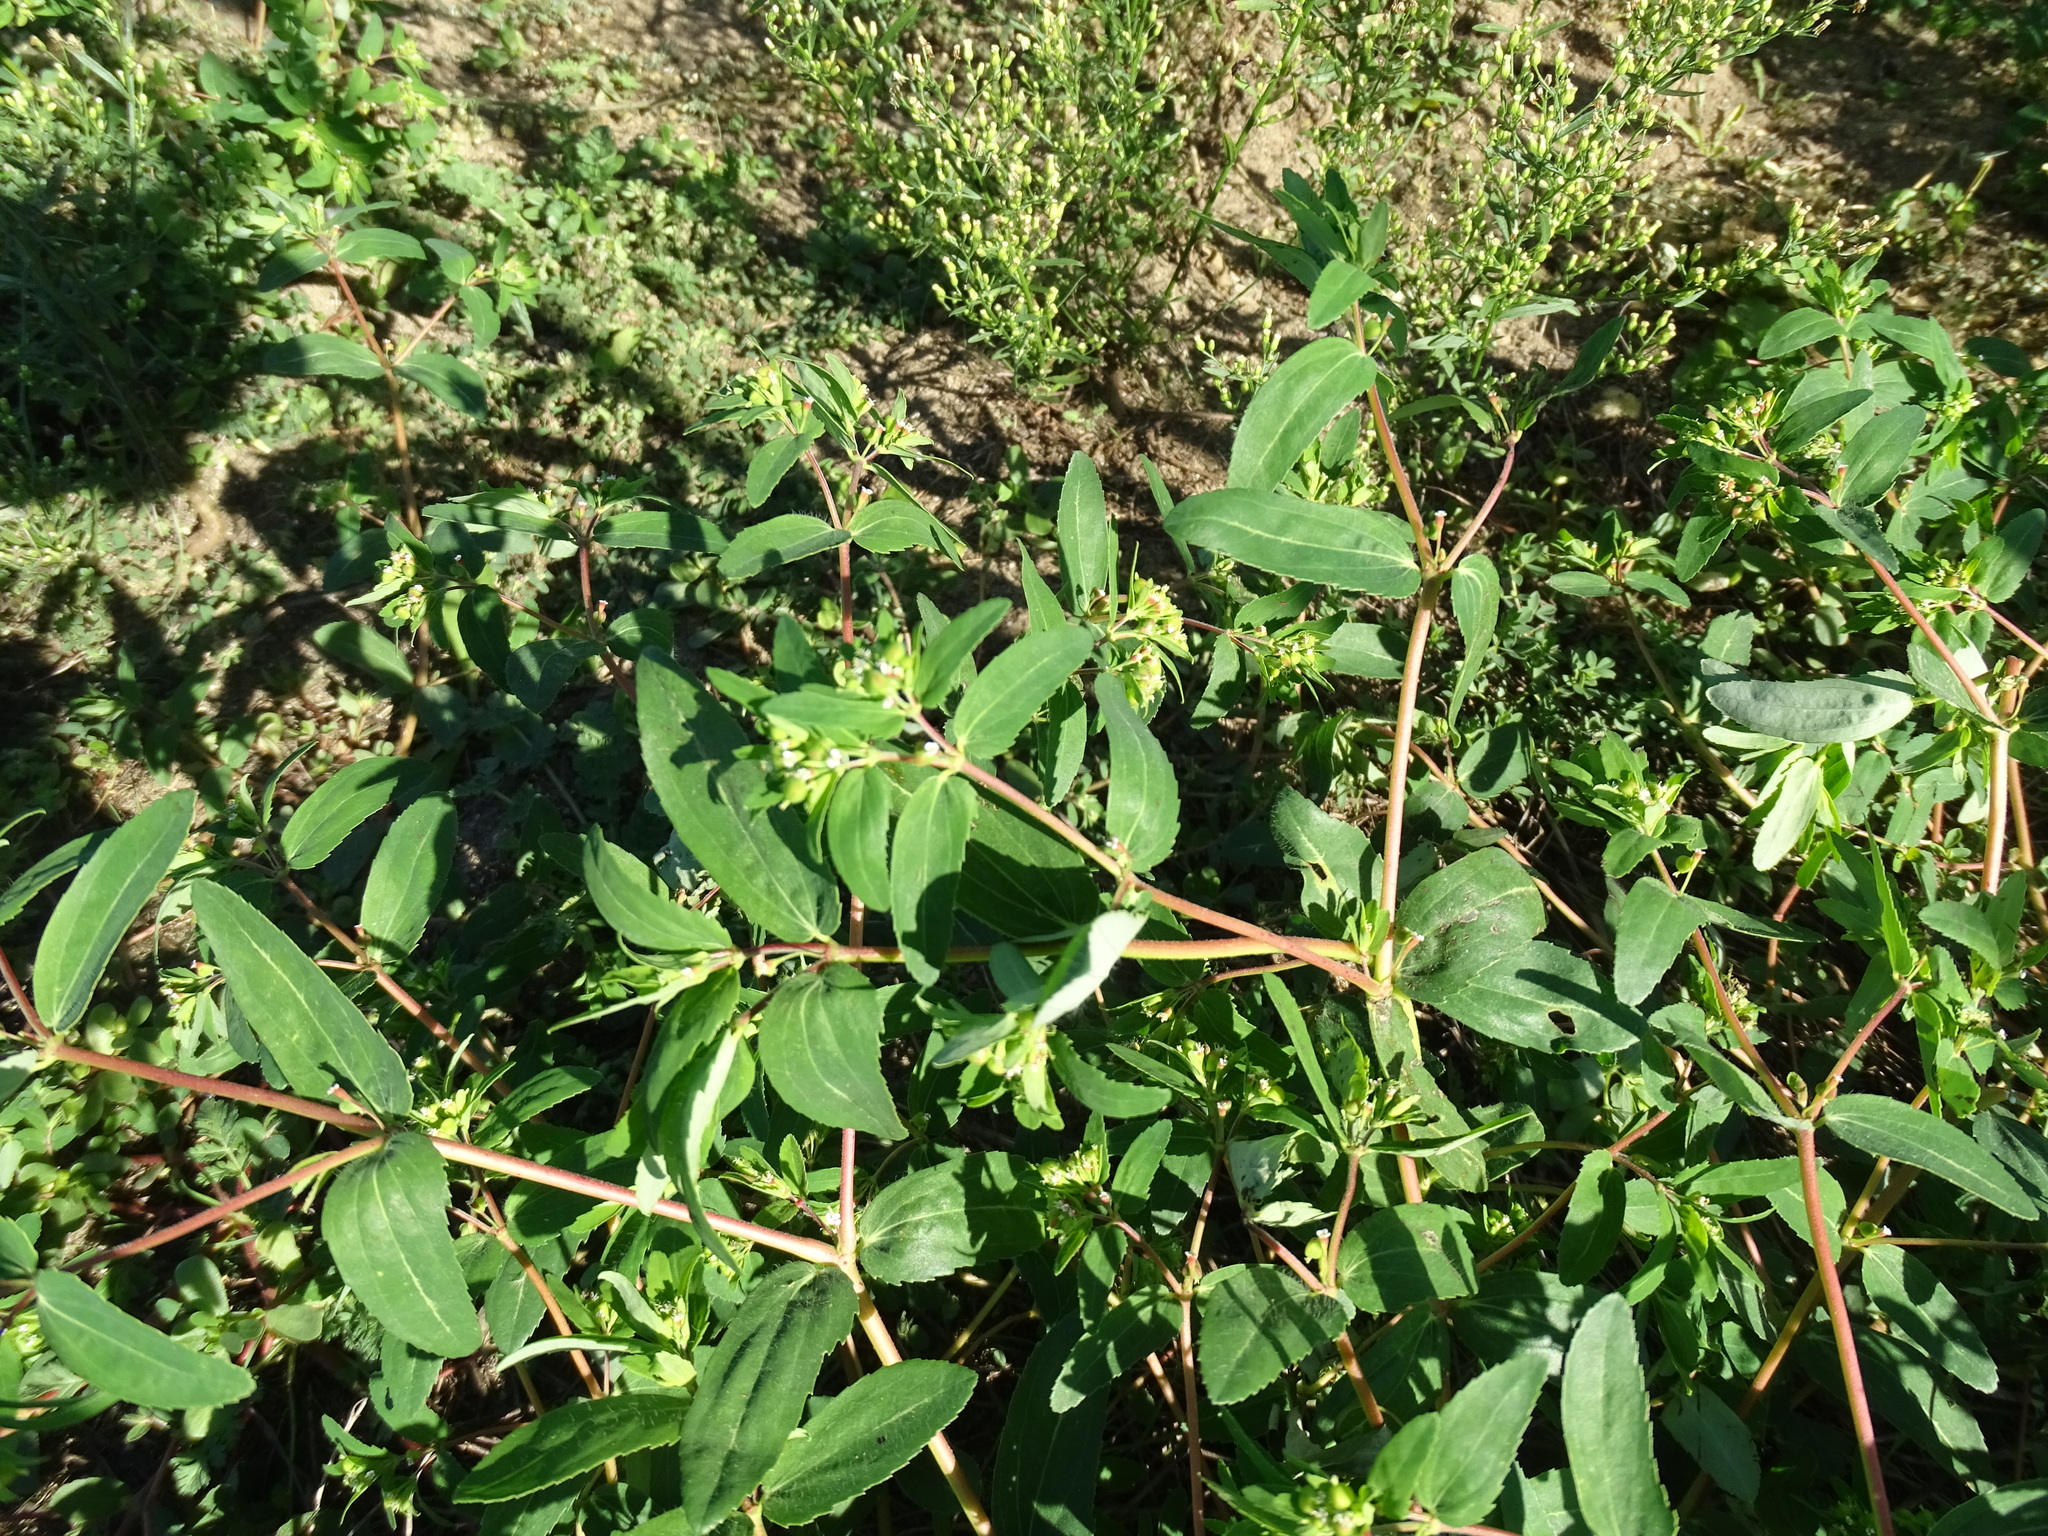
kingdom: Plantae
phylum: Tracheophyta
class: Magnoliopsida
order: Malpighiales
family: Euphorbiaceae
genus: Euphorbia
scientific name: Euphorbia nutans
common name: Eyebane
